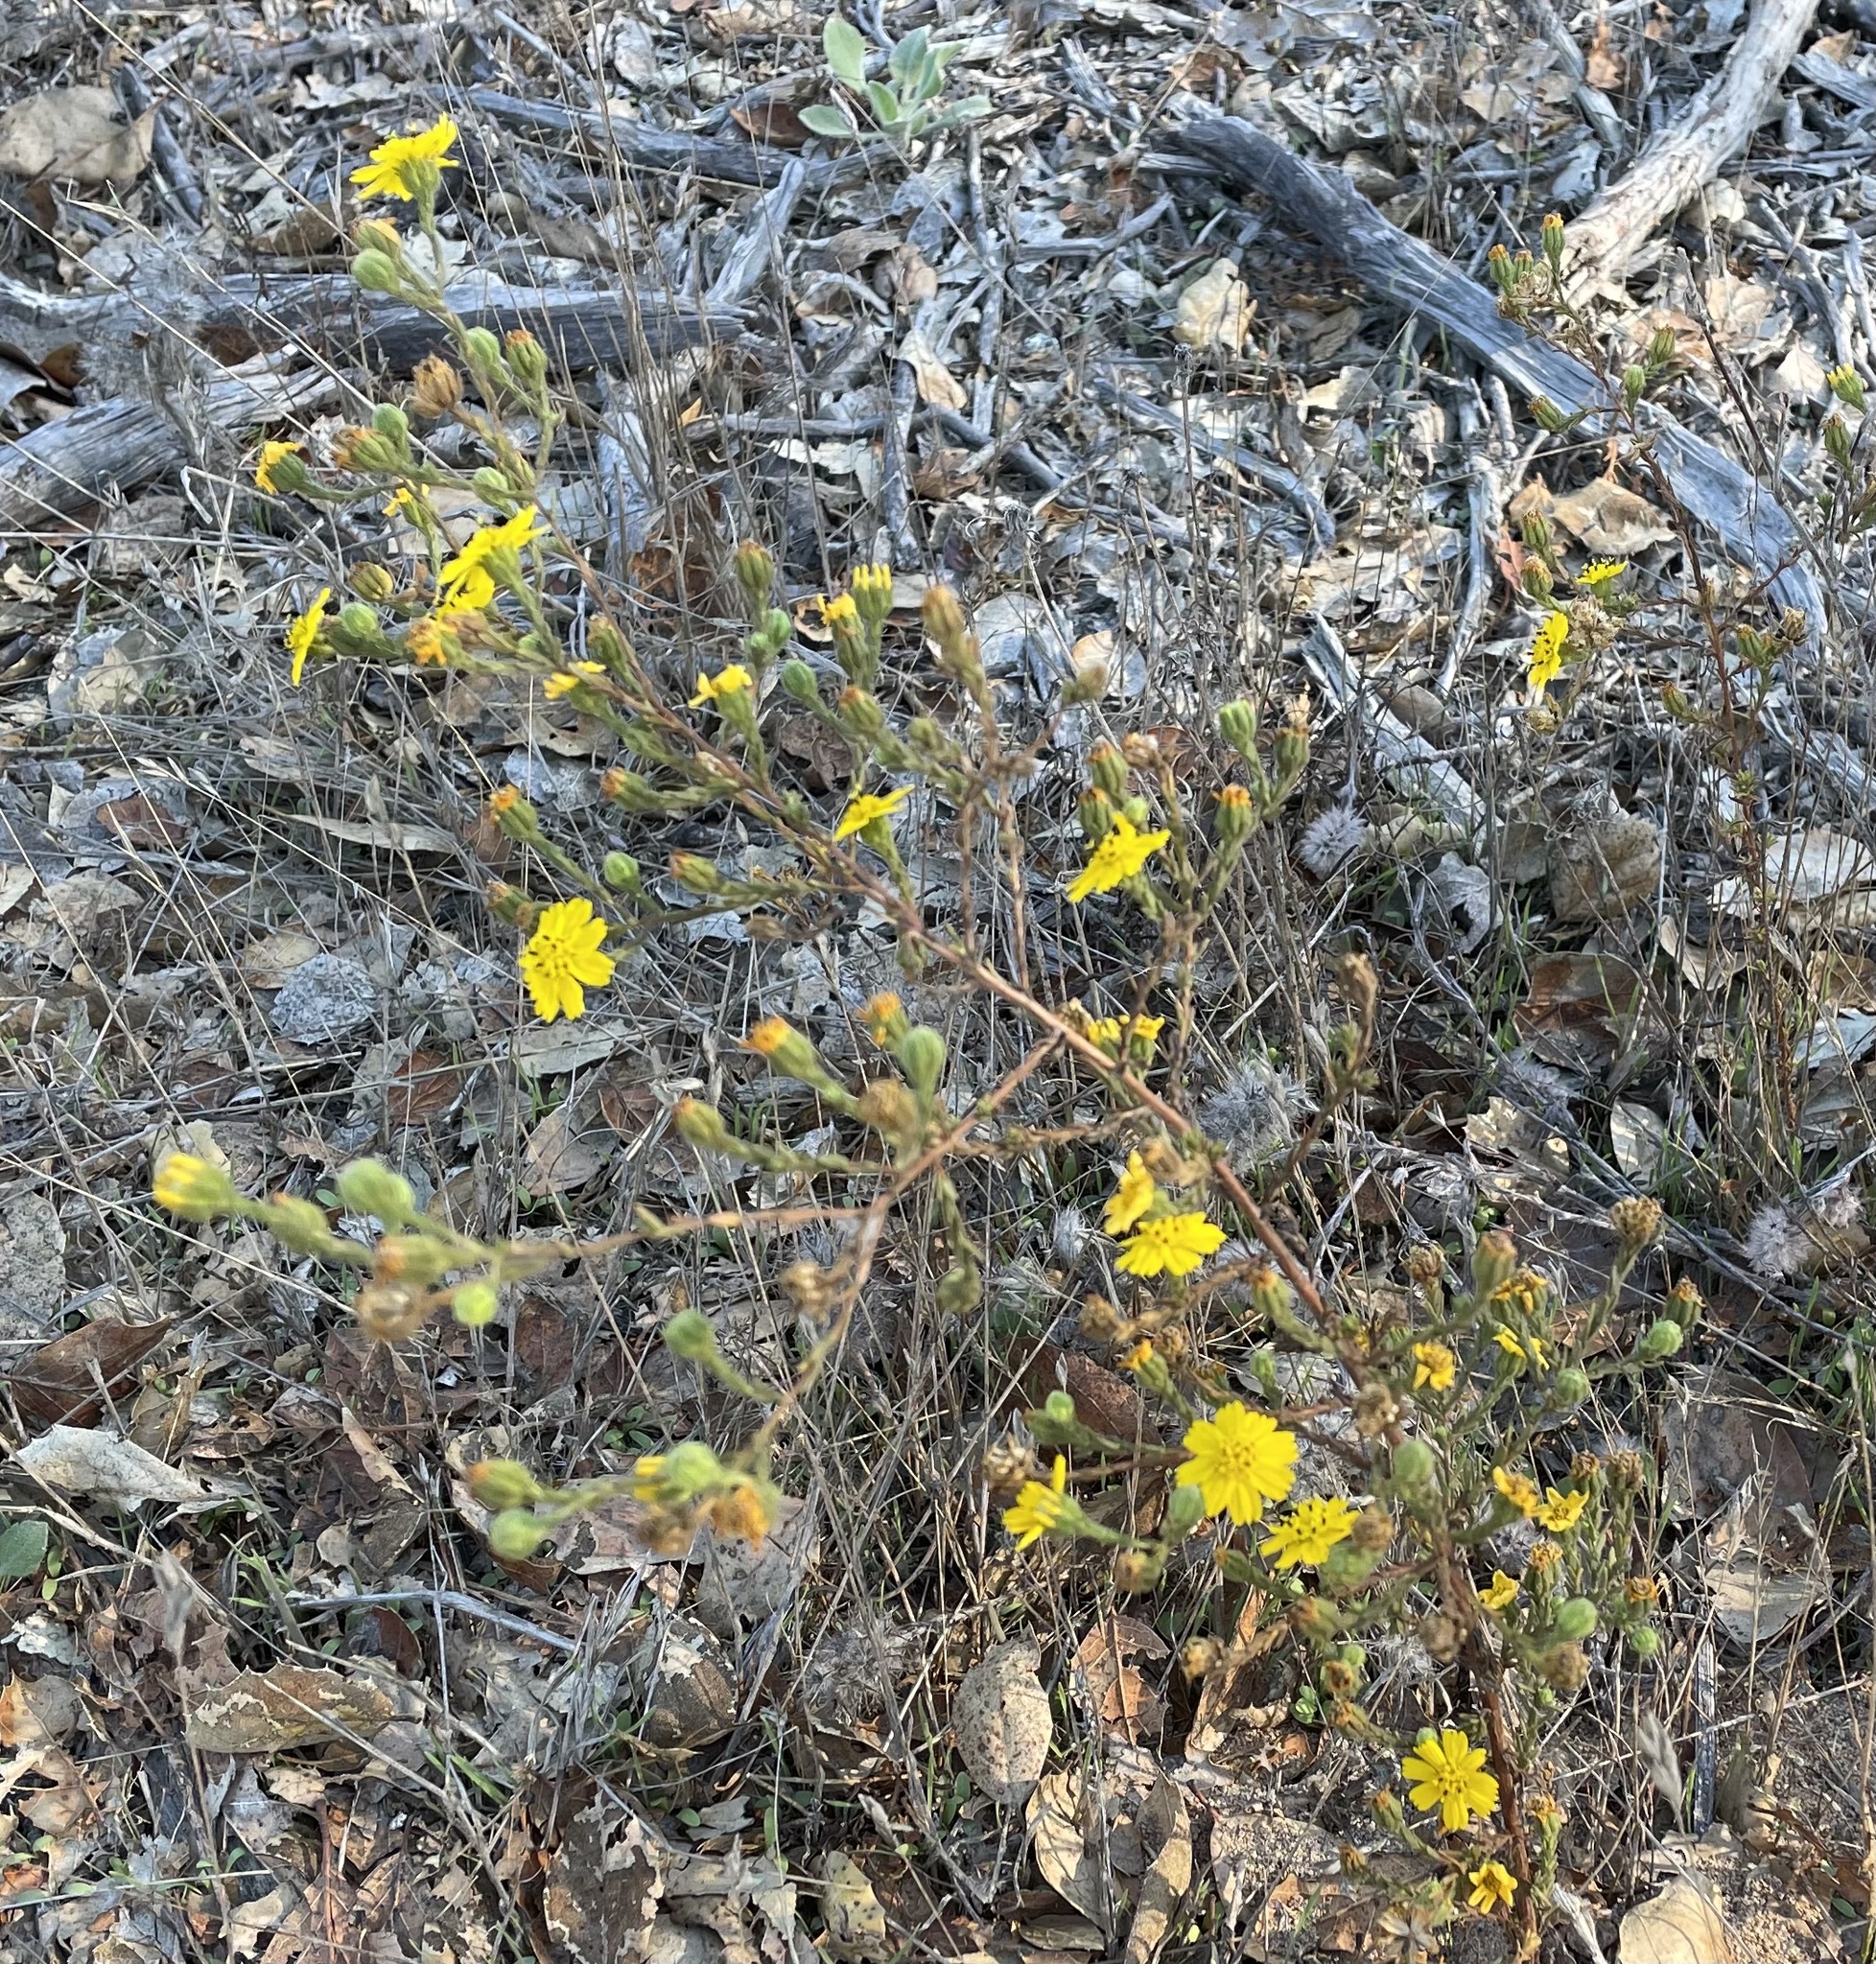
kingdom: Plantae
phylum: Tracheophyta
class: Magnoliopsida
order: Asterales
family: Asteraceae
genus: Deinandra
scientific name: Deinandra paniculata
